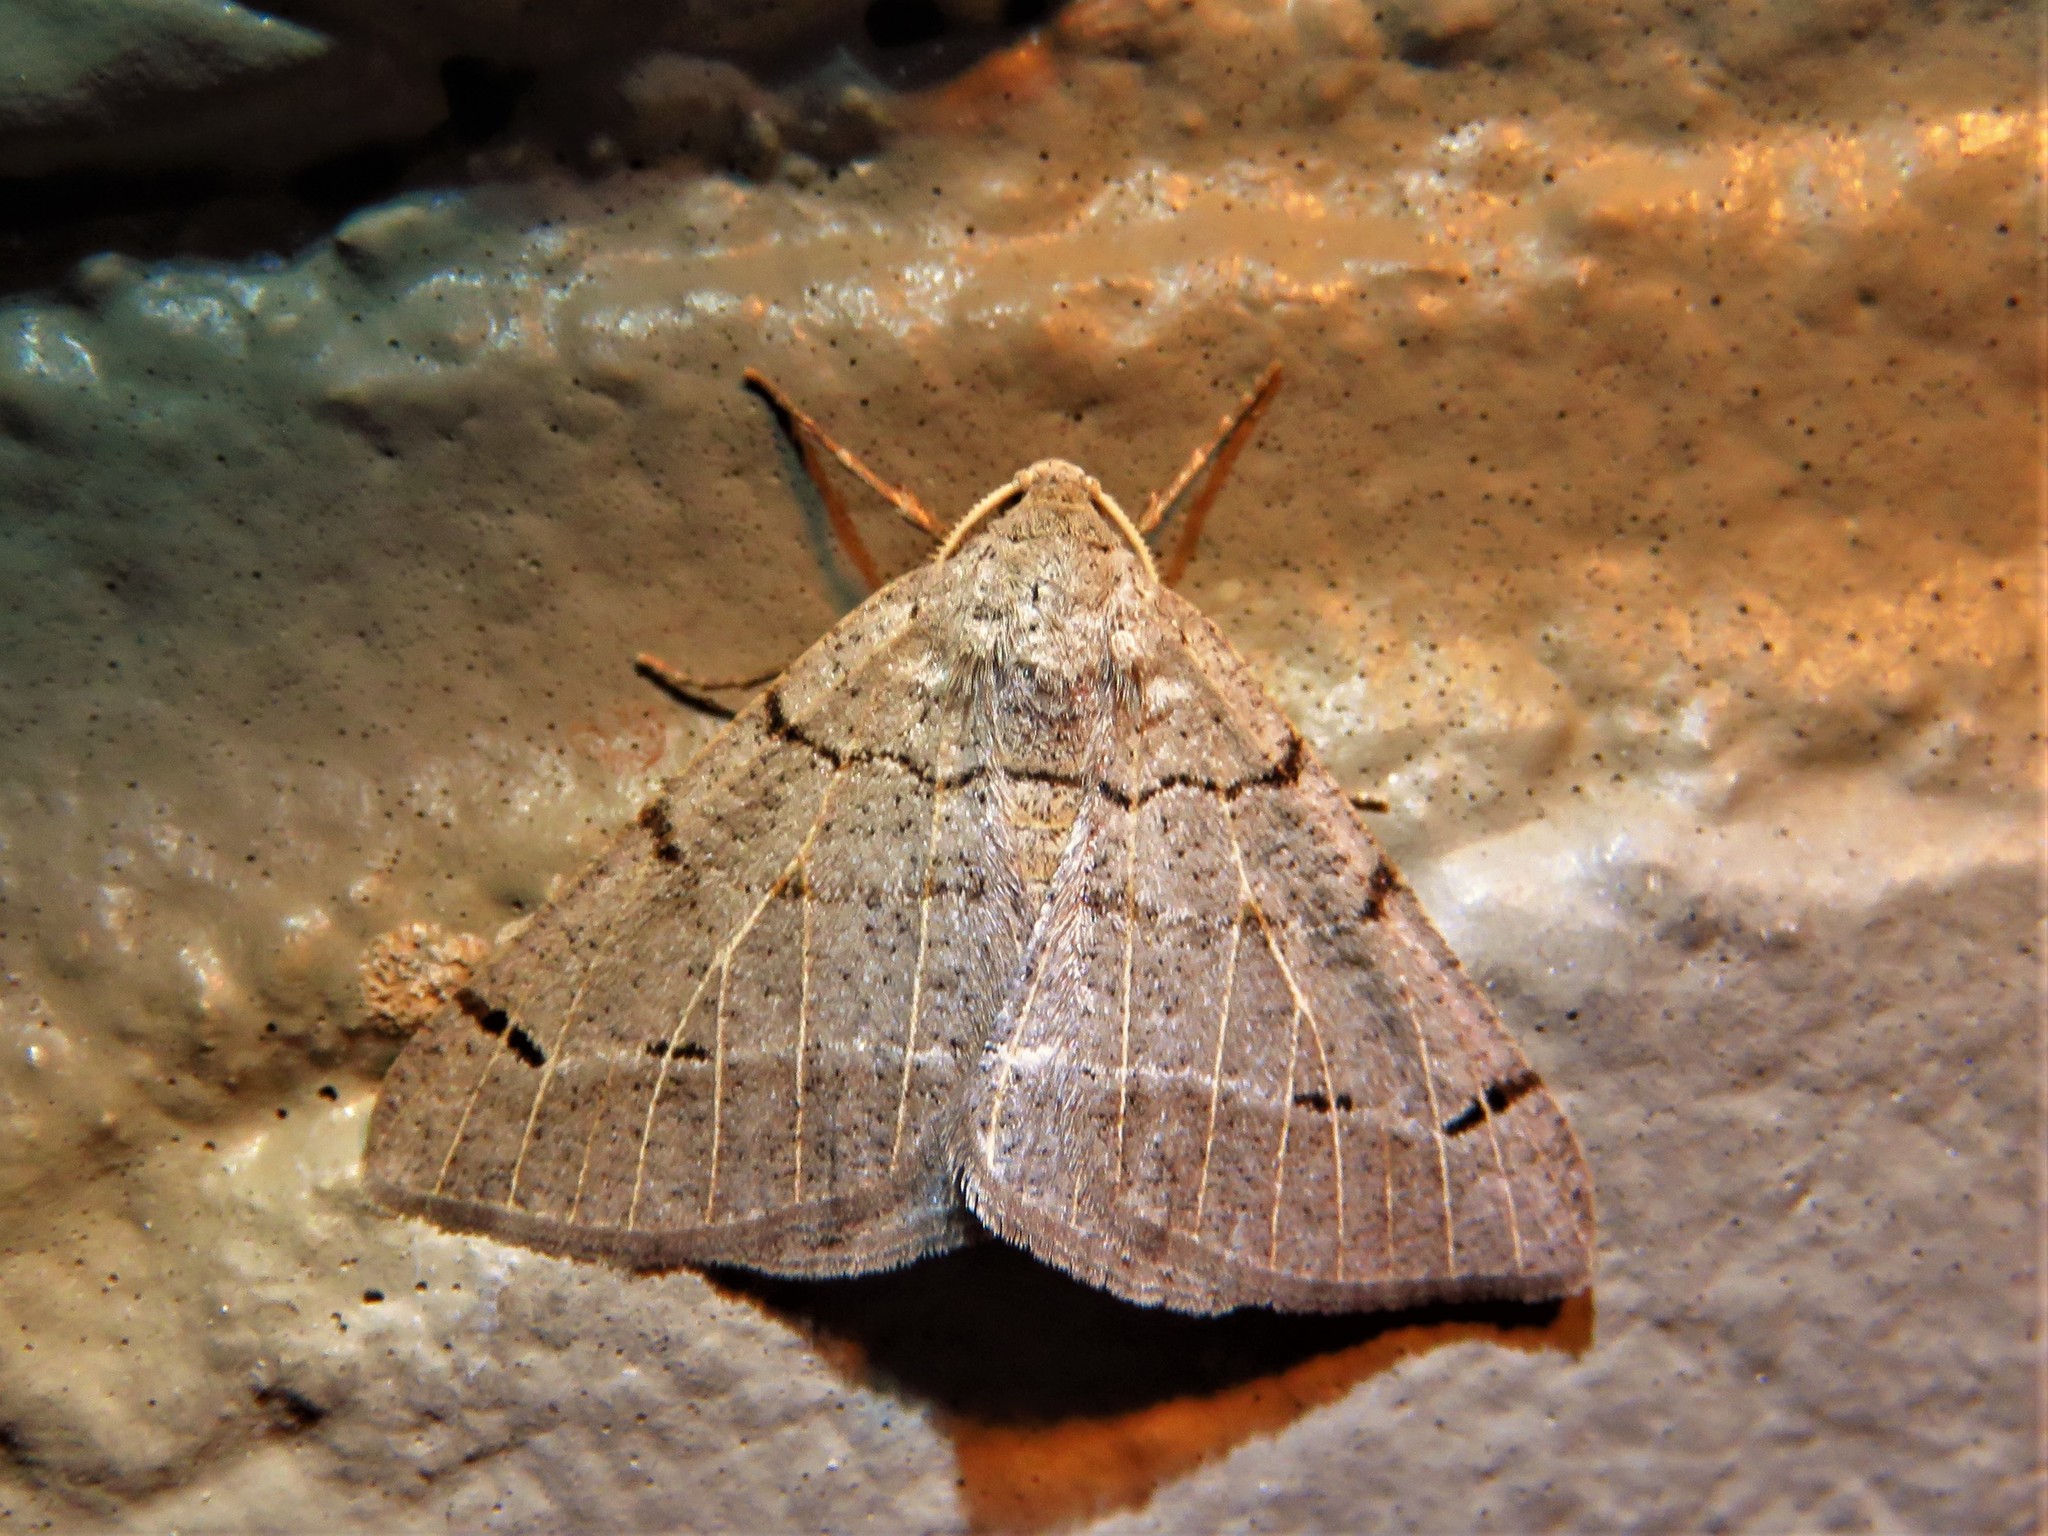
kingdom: Animalia
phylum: Arthropoda
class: Insecta
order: Lepidoptera
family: Geometridae
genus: Isturgia
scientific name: Isturgia dislocaria
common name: Pale-viened enconista
